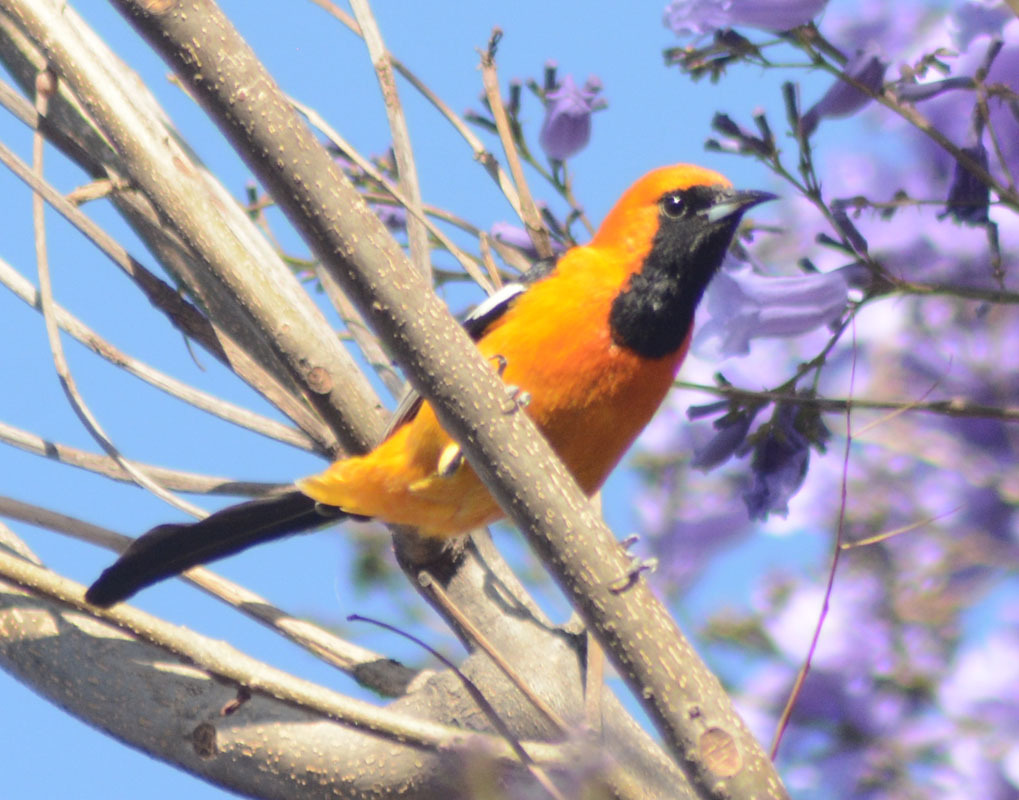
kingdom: Animalia
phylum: Chordata
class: Aves
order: Passeriformes
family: Icteridae
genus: Icterus
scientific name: Icterus cucullatus
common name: Hooded oriole
